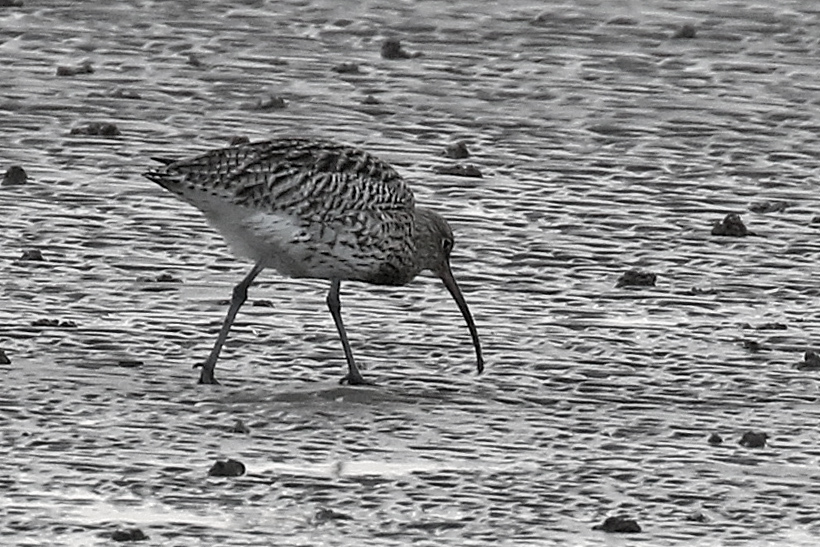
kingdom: Animalia
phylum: Chordata
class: Aves
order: Charadriiformes
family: Scolopacidae
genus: Numenius
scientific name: Numenius arquata
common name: Eurasian curlew
